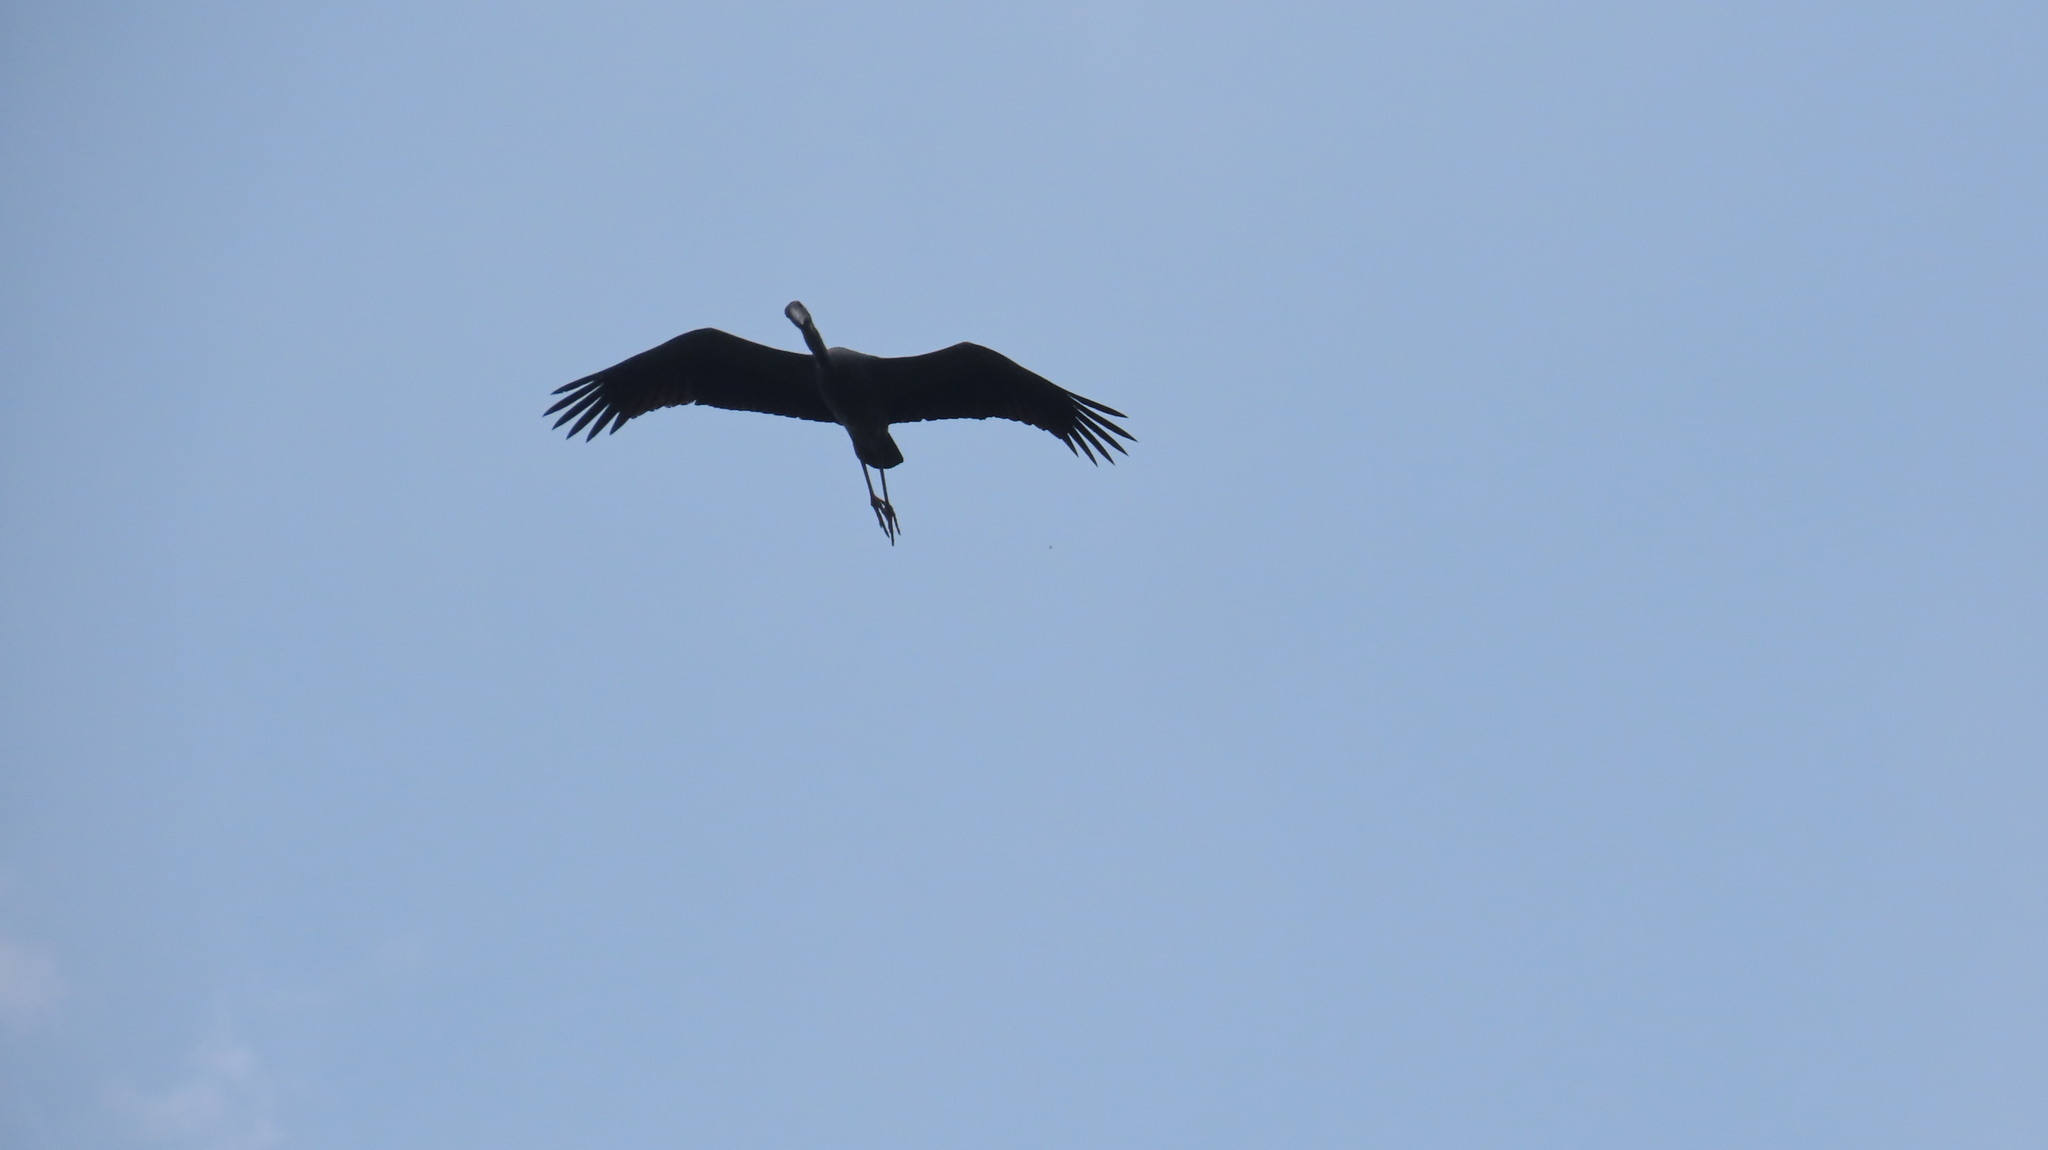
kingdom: Animalia
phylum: Chordata
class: Aves
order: Ciconiiformes
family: Ciconiidae
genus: Anastomus
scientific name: Anastomus oscitans
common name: Asian openbill
